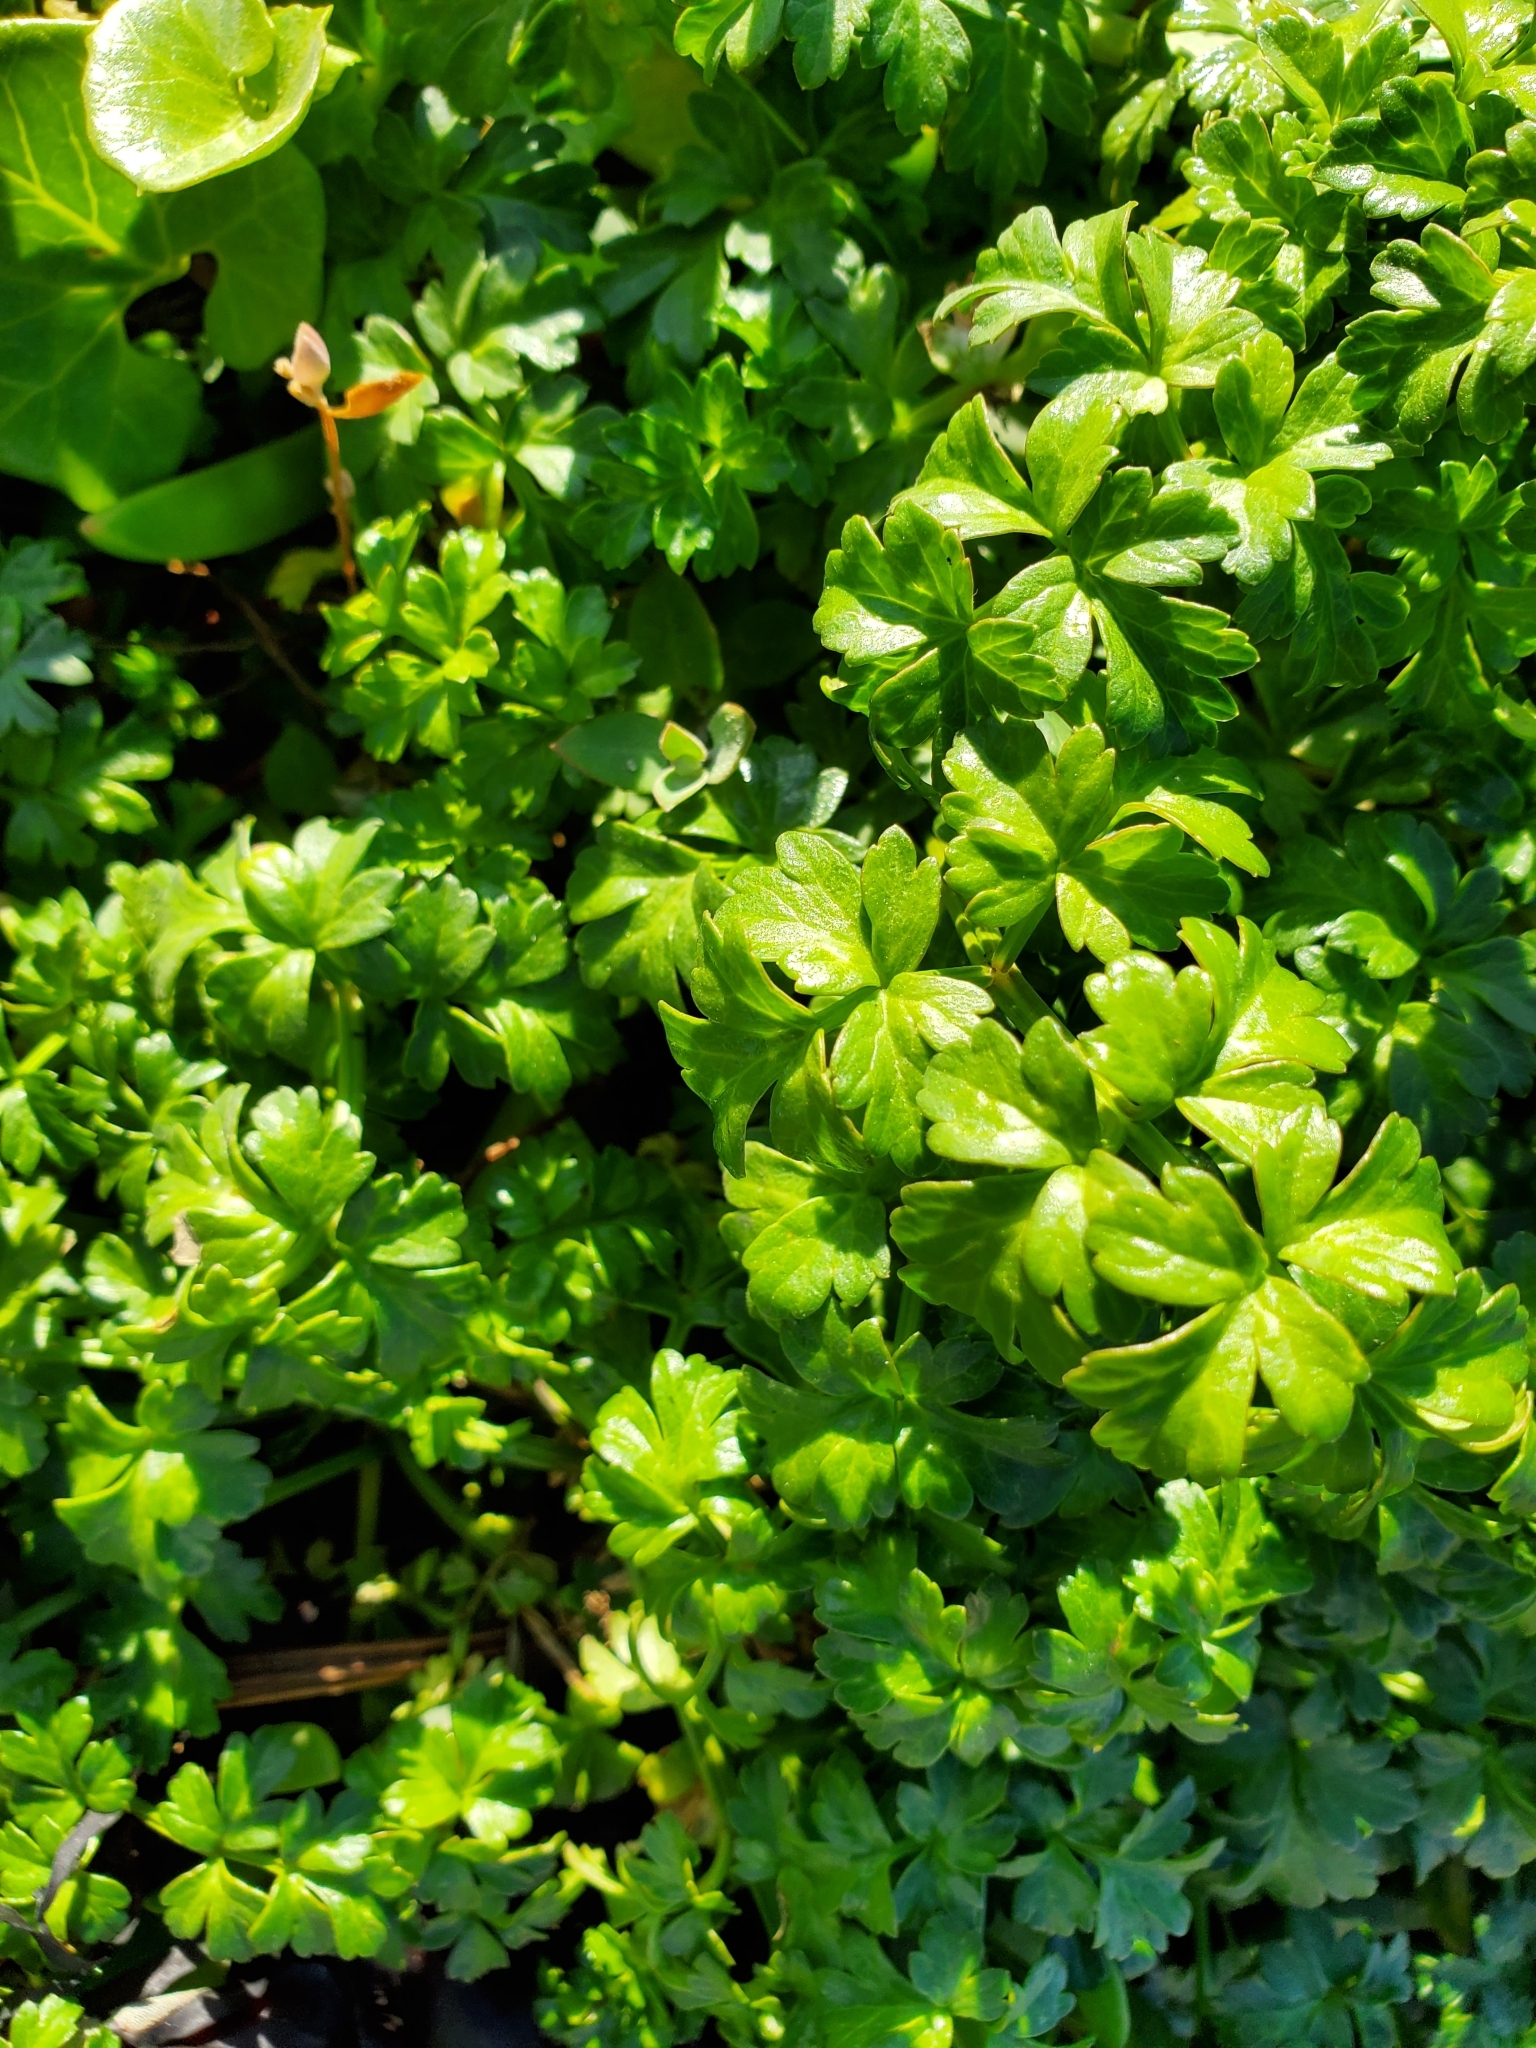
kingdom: Plantae
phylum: Tracheophyta
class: Magnoliopsida
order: Apiales
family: Apiaceae
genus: Apium
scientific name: Apium prostratum
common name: Prostrate marshwort
